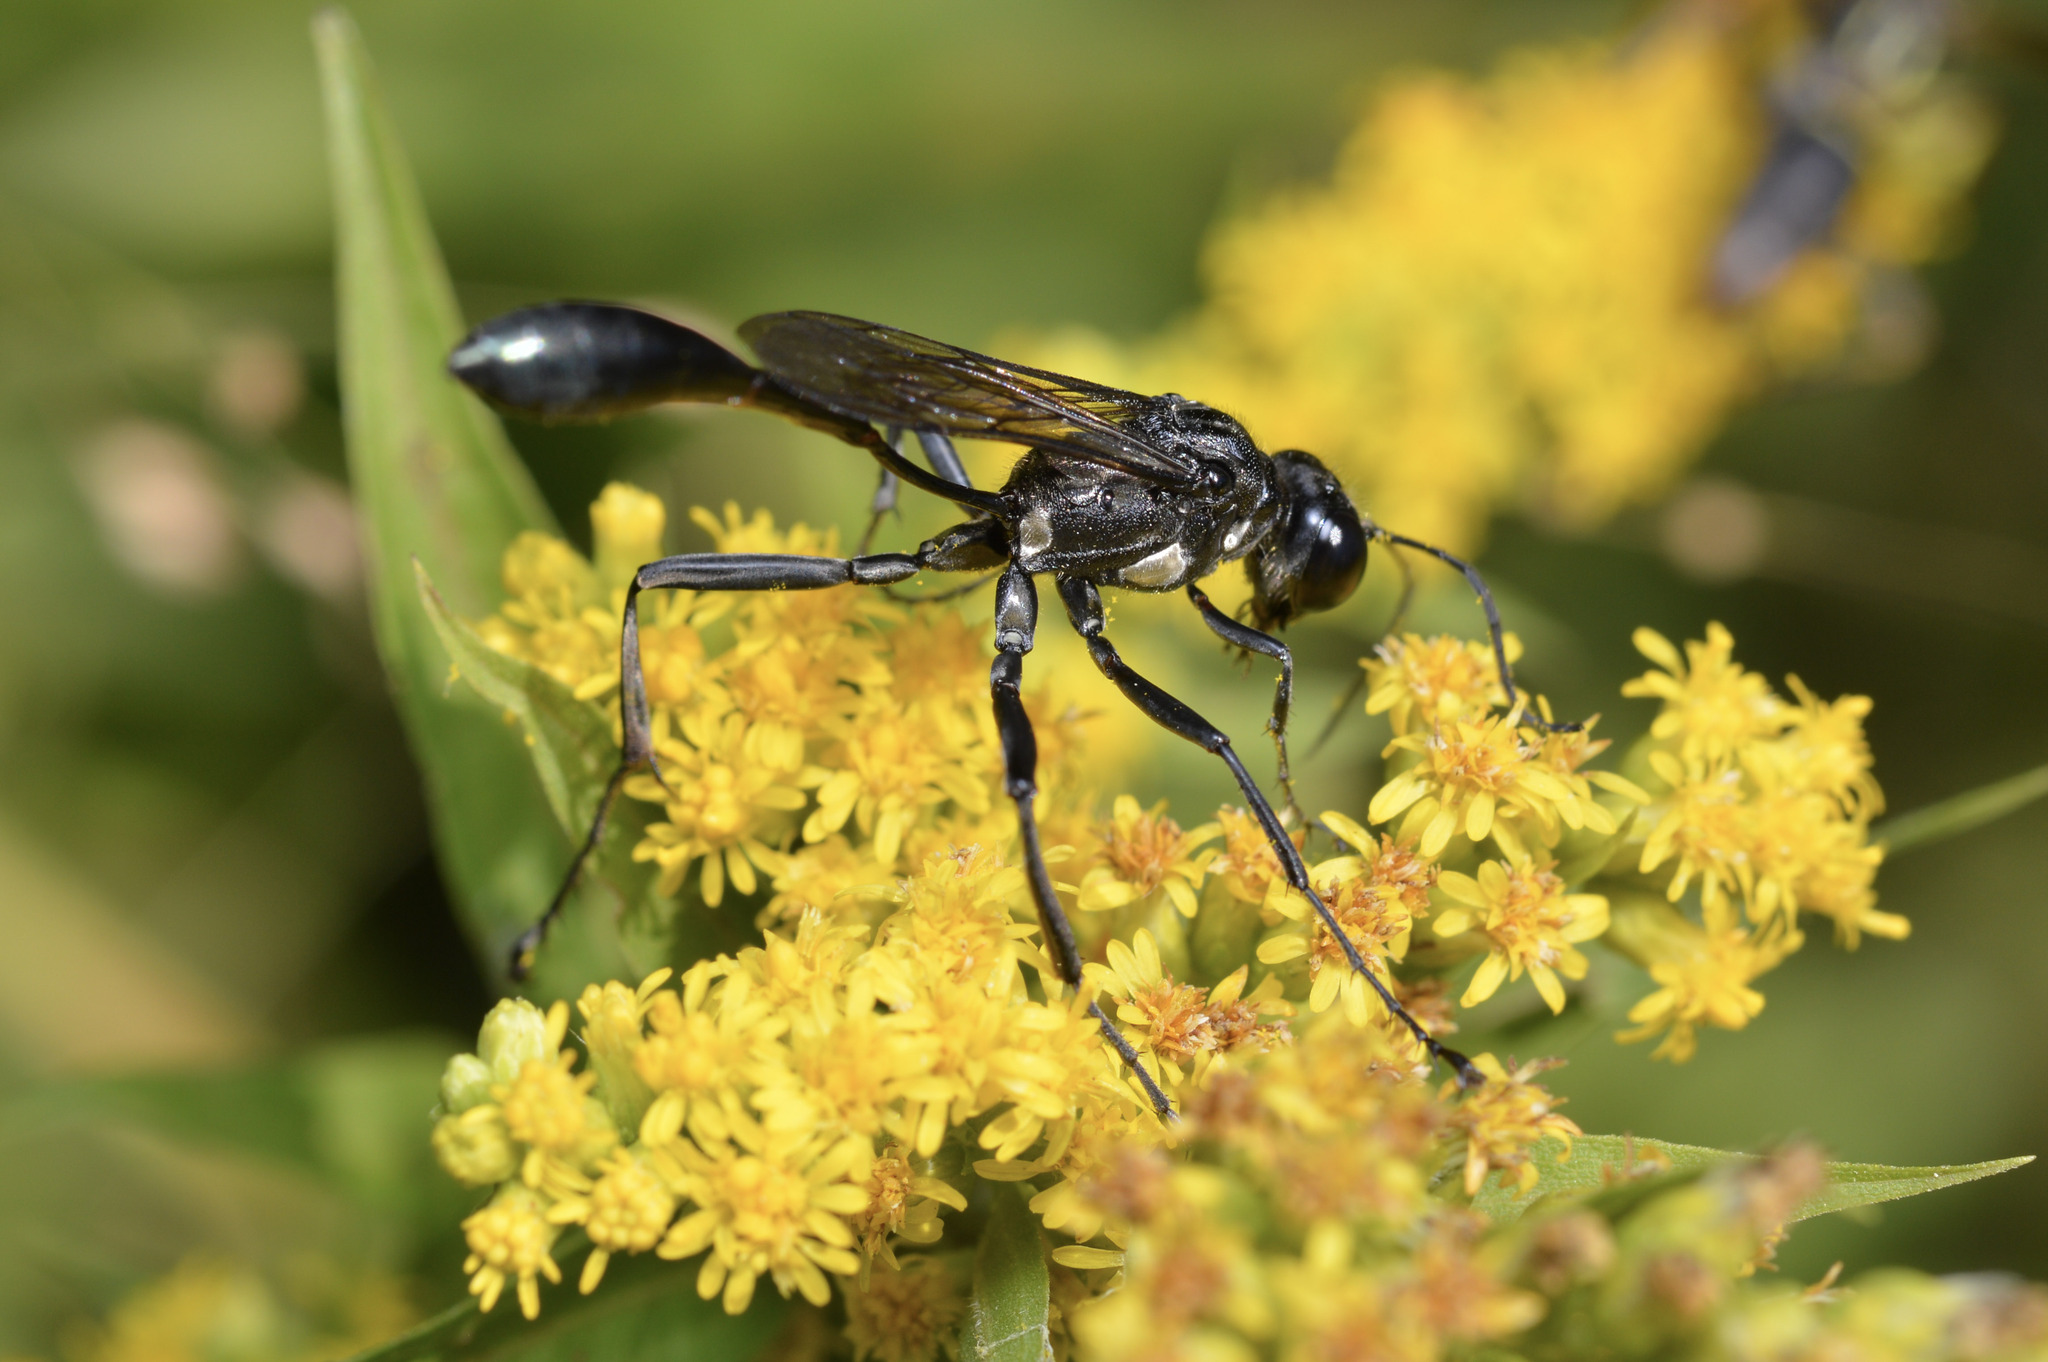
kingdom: Animalia
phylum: Arthropoda
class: Insecta
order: Hymenoptera
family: Sphecidae
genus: Eremnophila
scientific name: Eremnophila aureonotata
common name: Gold-marked thread-waisted wasp
